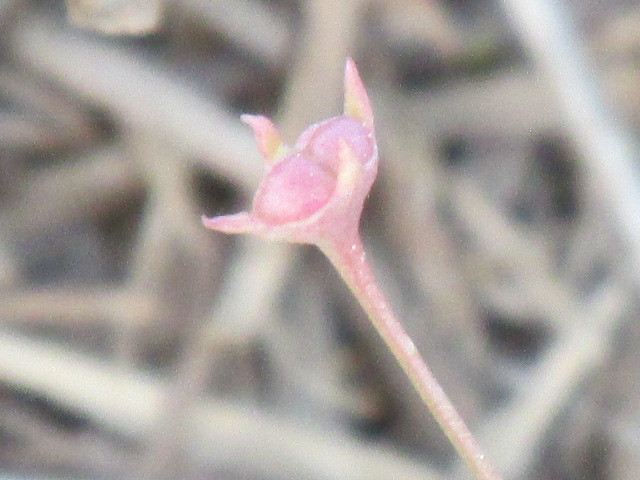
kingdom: Plantae
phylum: Tracheophyta
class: Magnoliopsida
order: Gentianales
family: Rubiaceae
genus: Houstonia
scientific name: Houstonia pusilla
